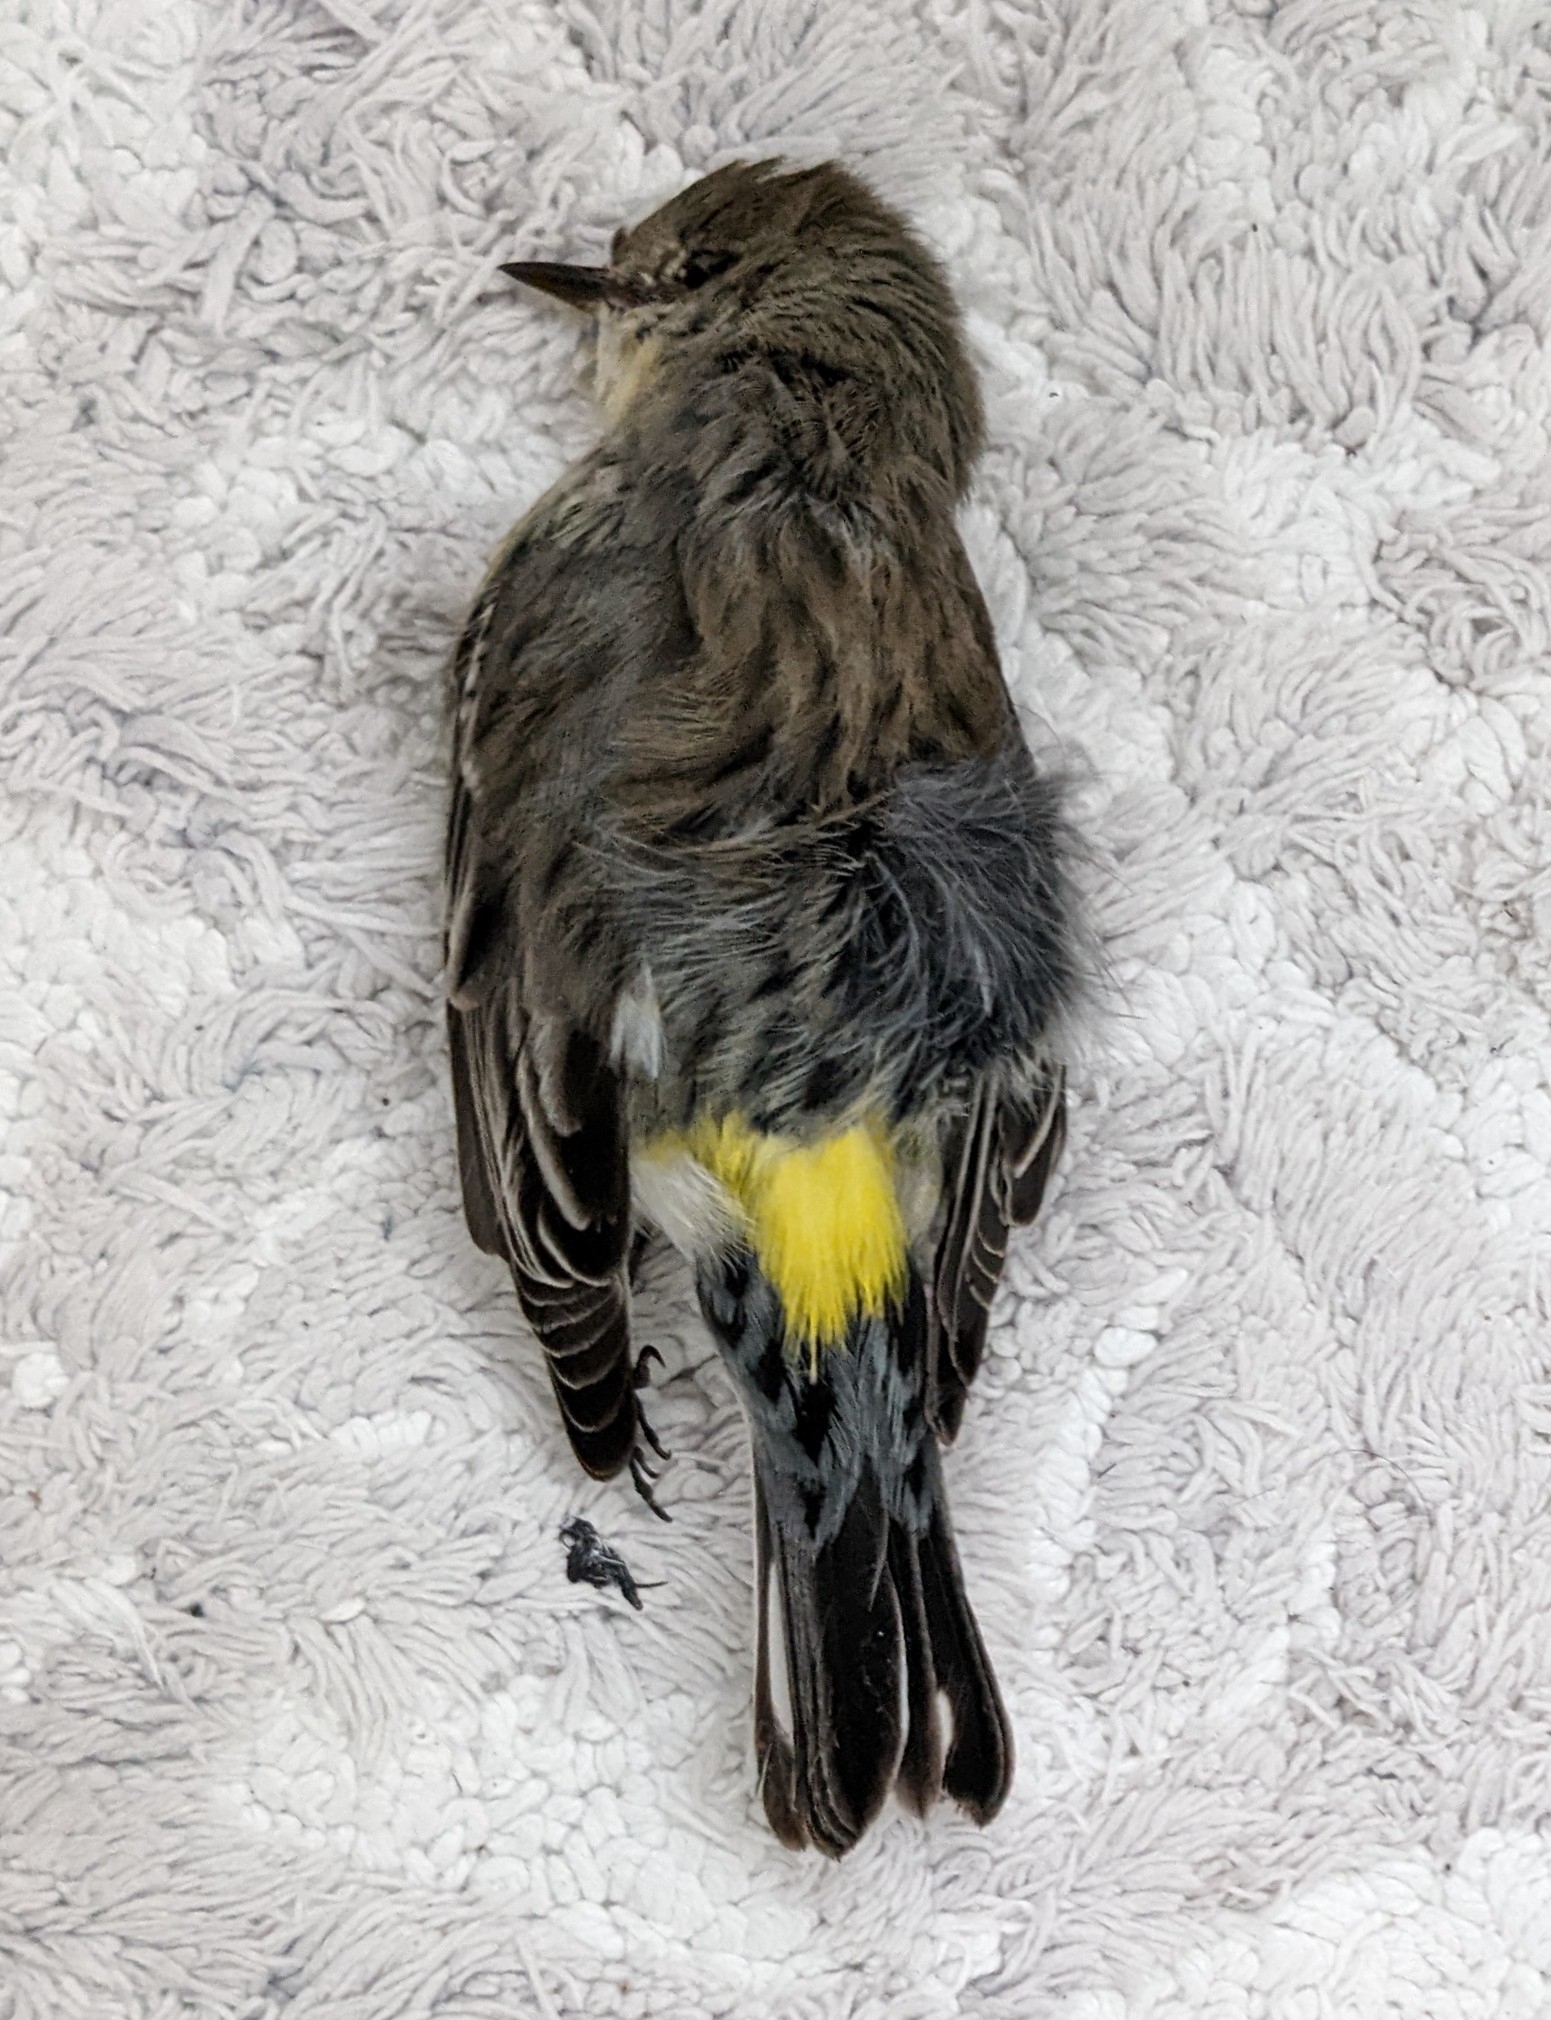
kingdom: Animalia
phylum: Chordata
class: Aves
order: Passeriformes
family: Parulidae
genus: Setophaga
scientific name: Setophaga coronata
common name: Myrtle warbler
